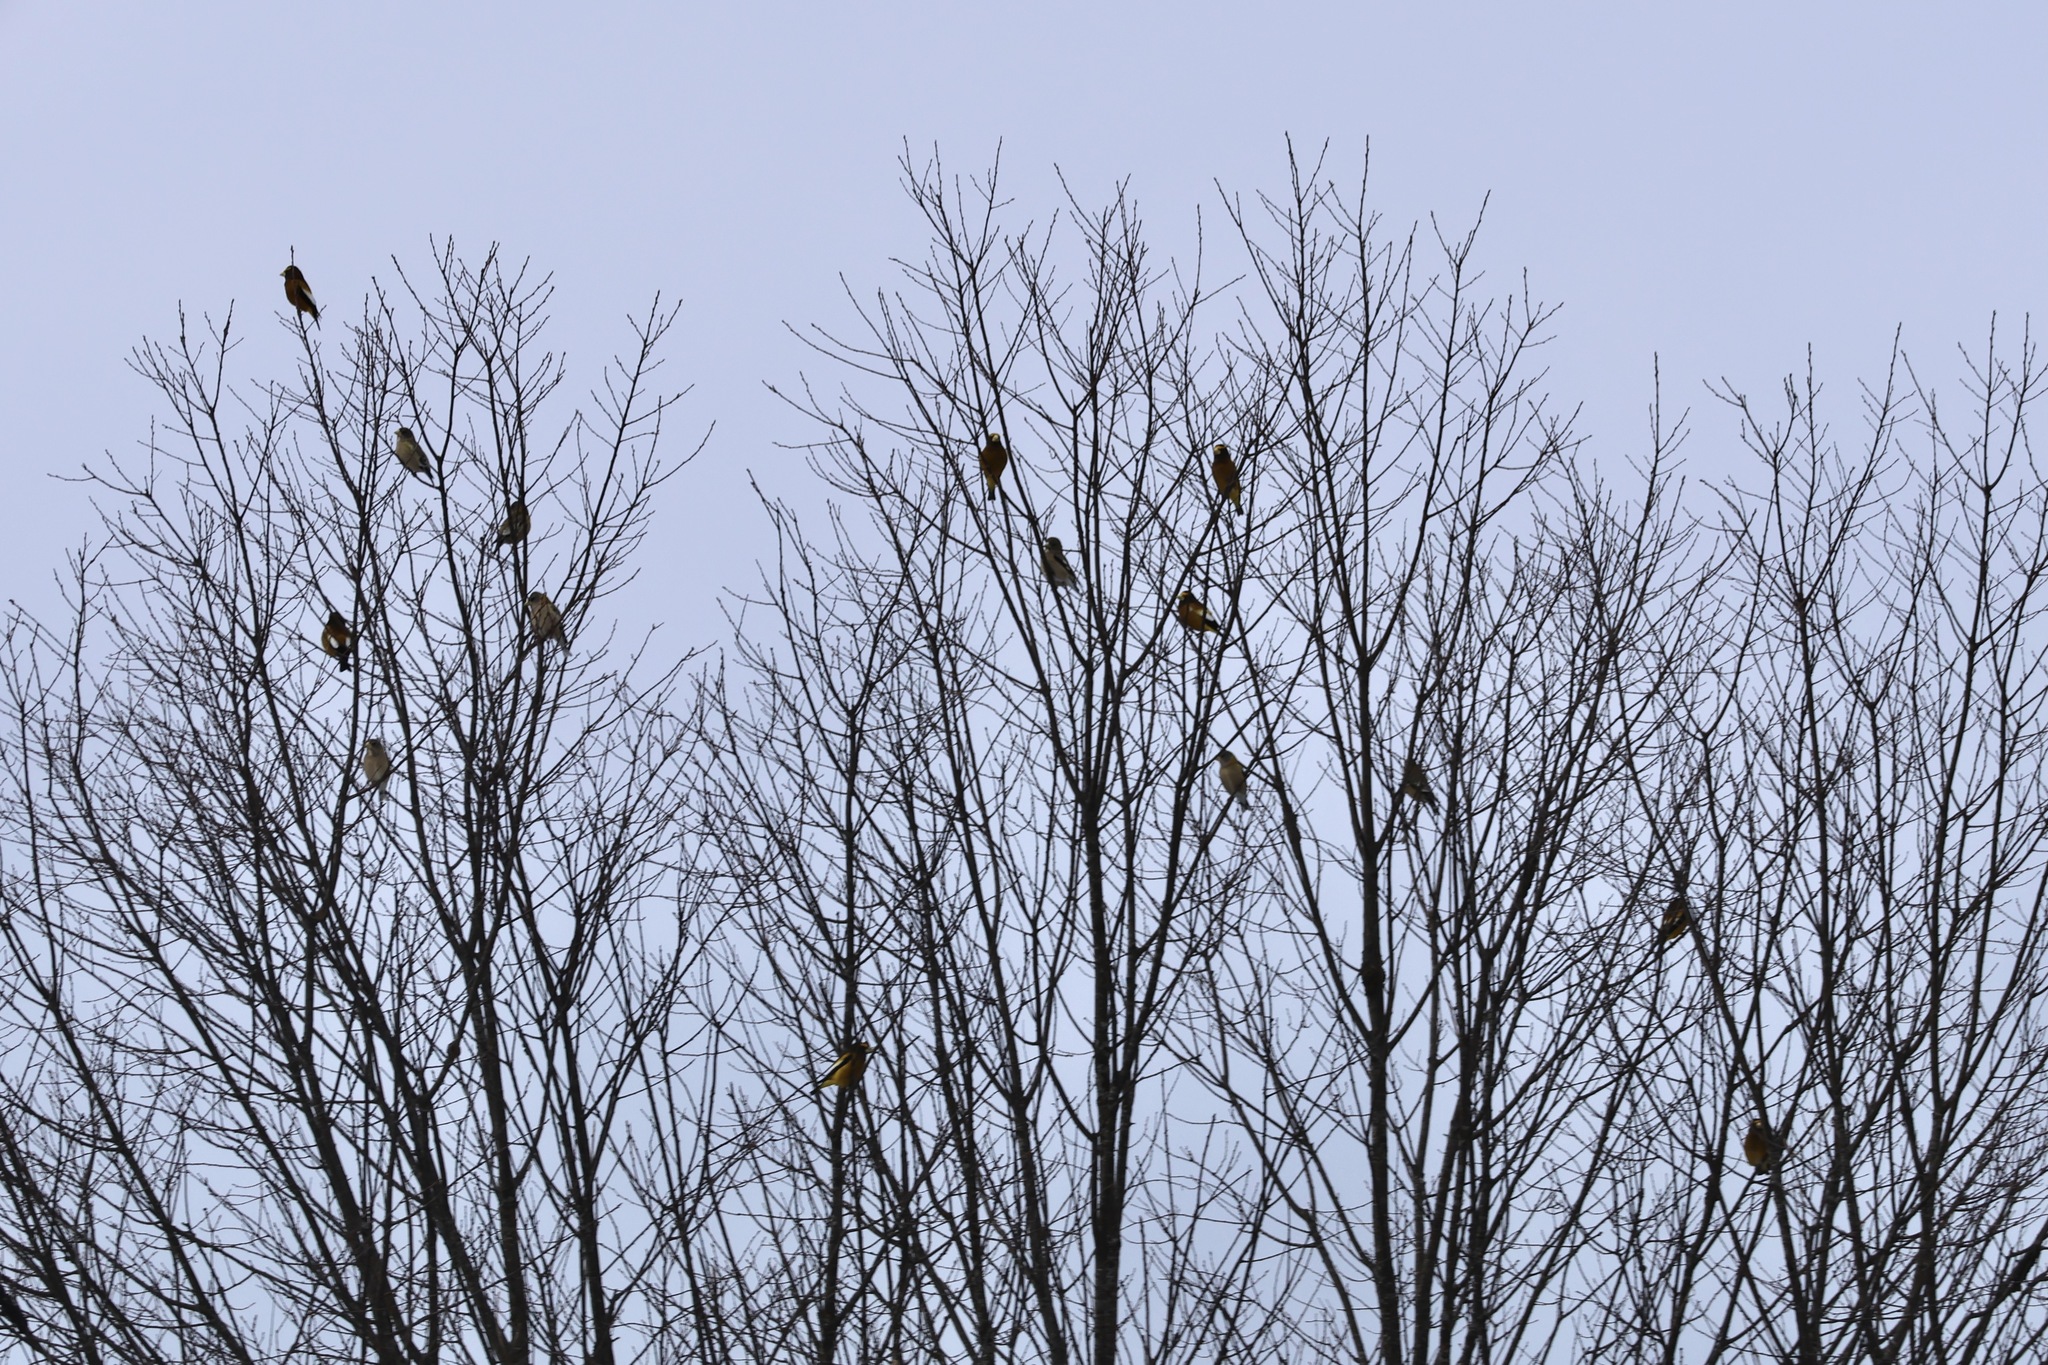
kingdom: Animalia
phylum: Chordata
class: Aves
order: Passeriformes
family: Fringillidae
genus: Hesperiphona
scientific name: Hesperiphona vespertina
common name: Evening grosbeak
